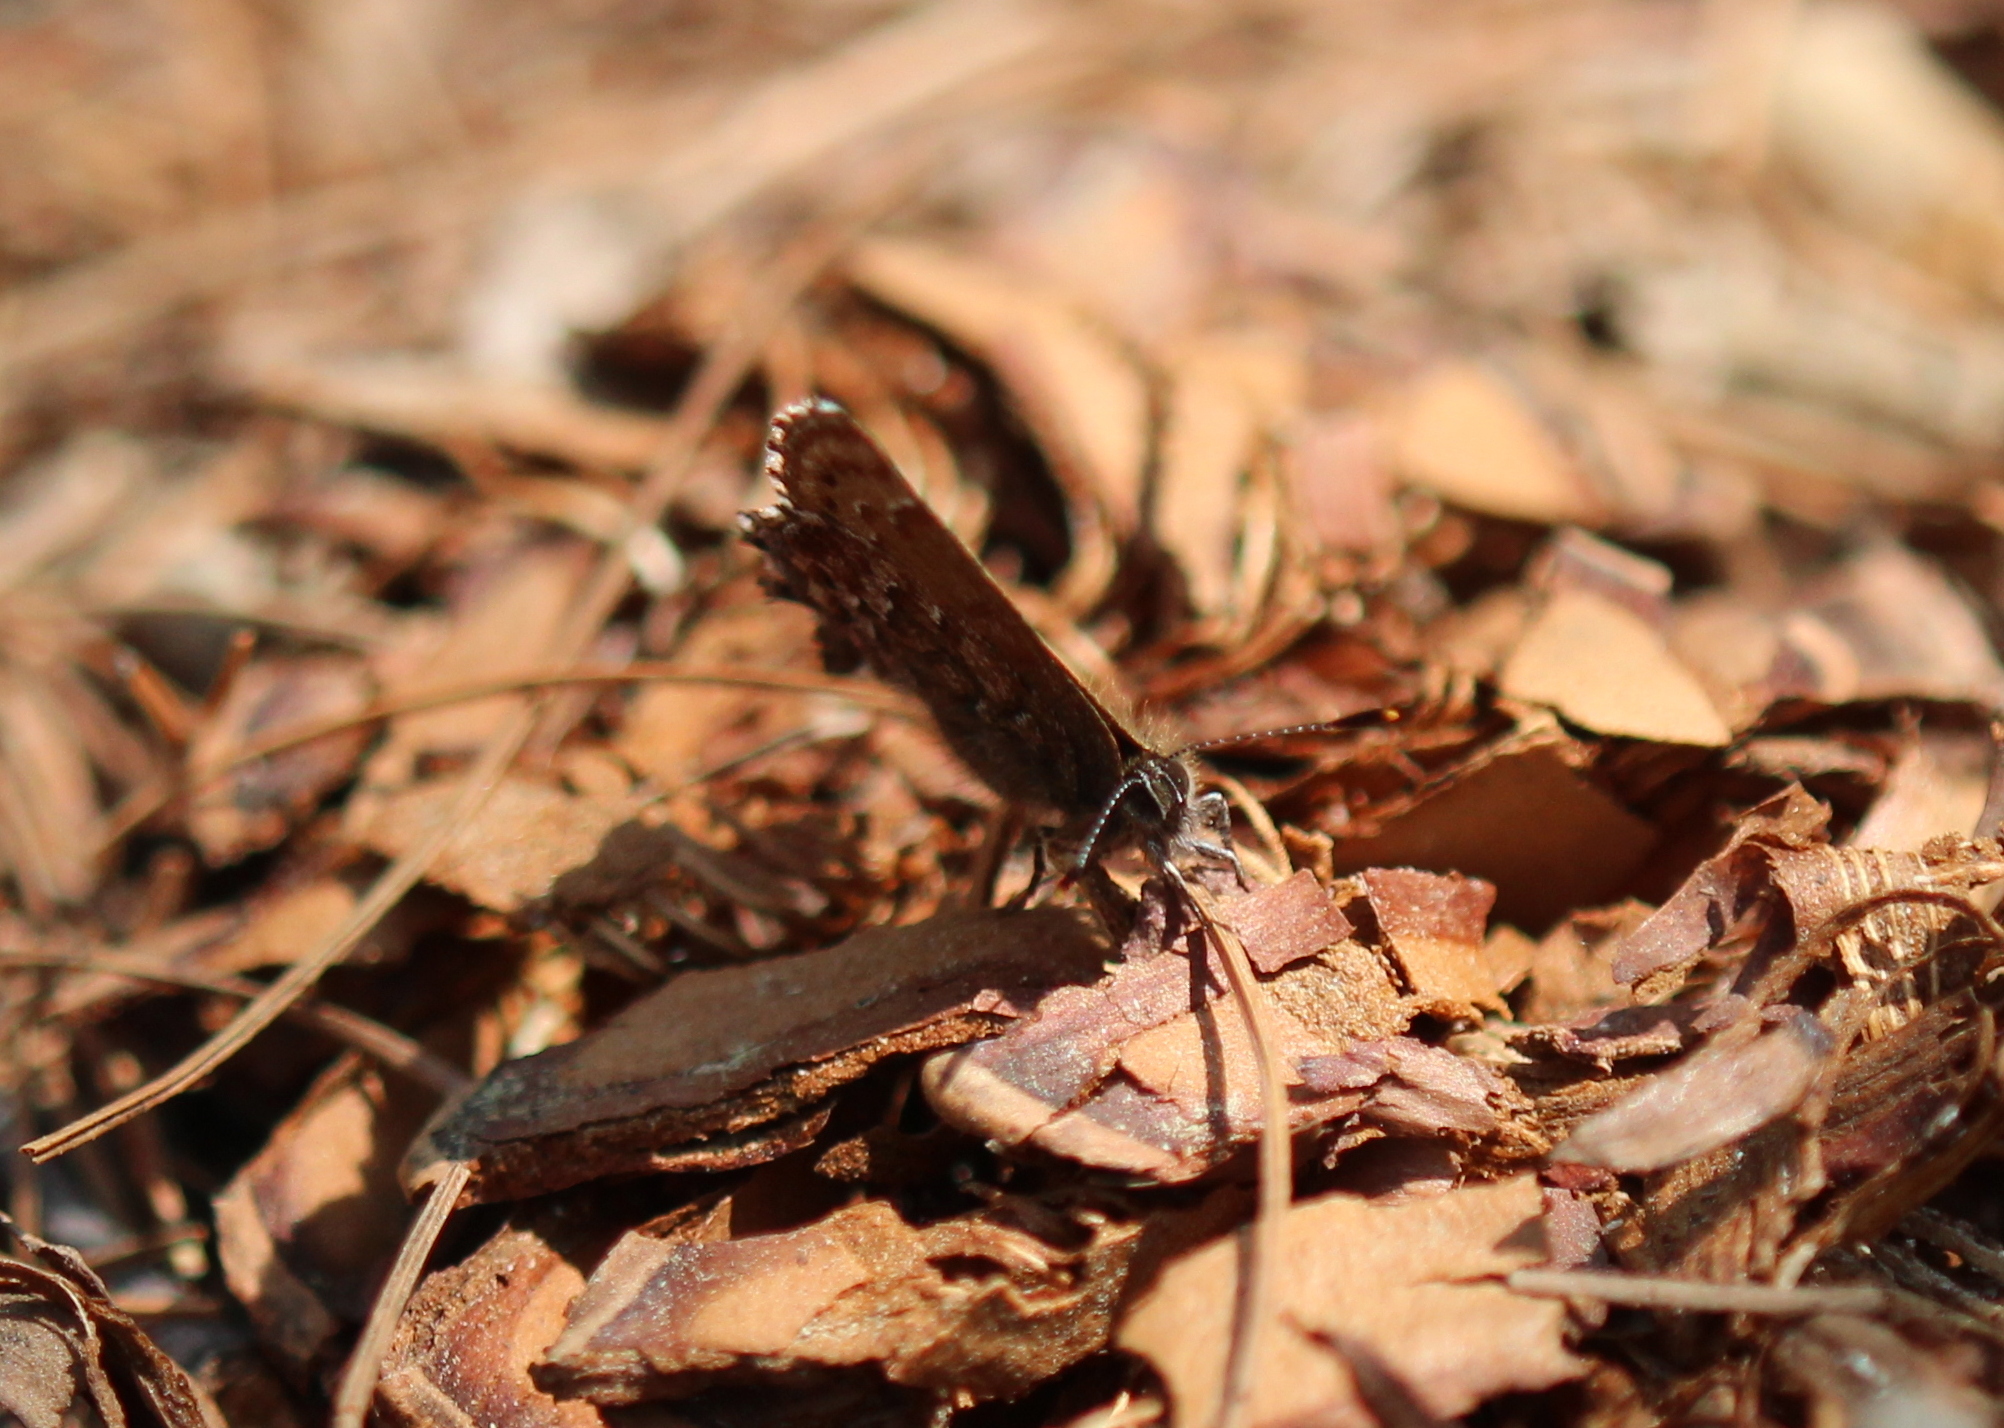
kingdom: Animalia
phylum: Arthropoda
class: Insecta
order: Lepidoptera
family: Lycaenidae
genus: Incisalia
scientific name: Incisalia niphon
